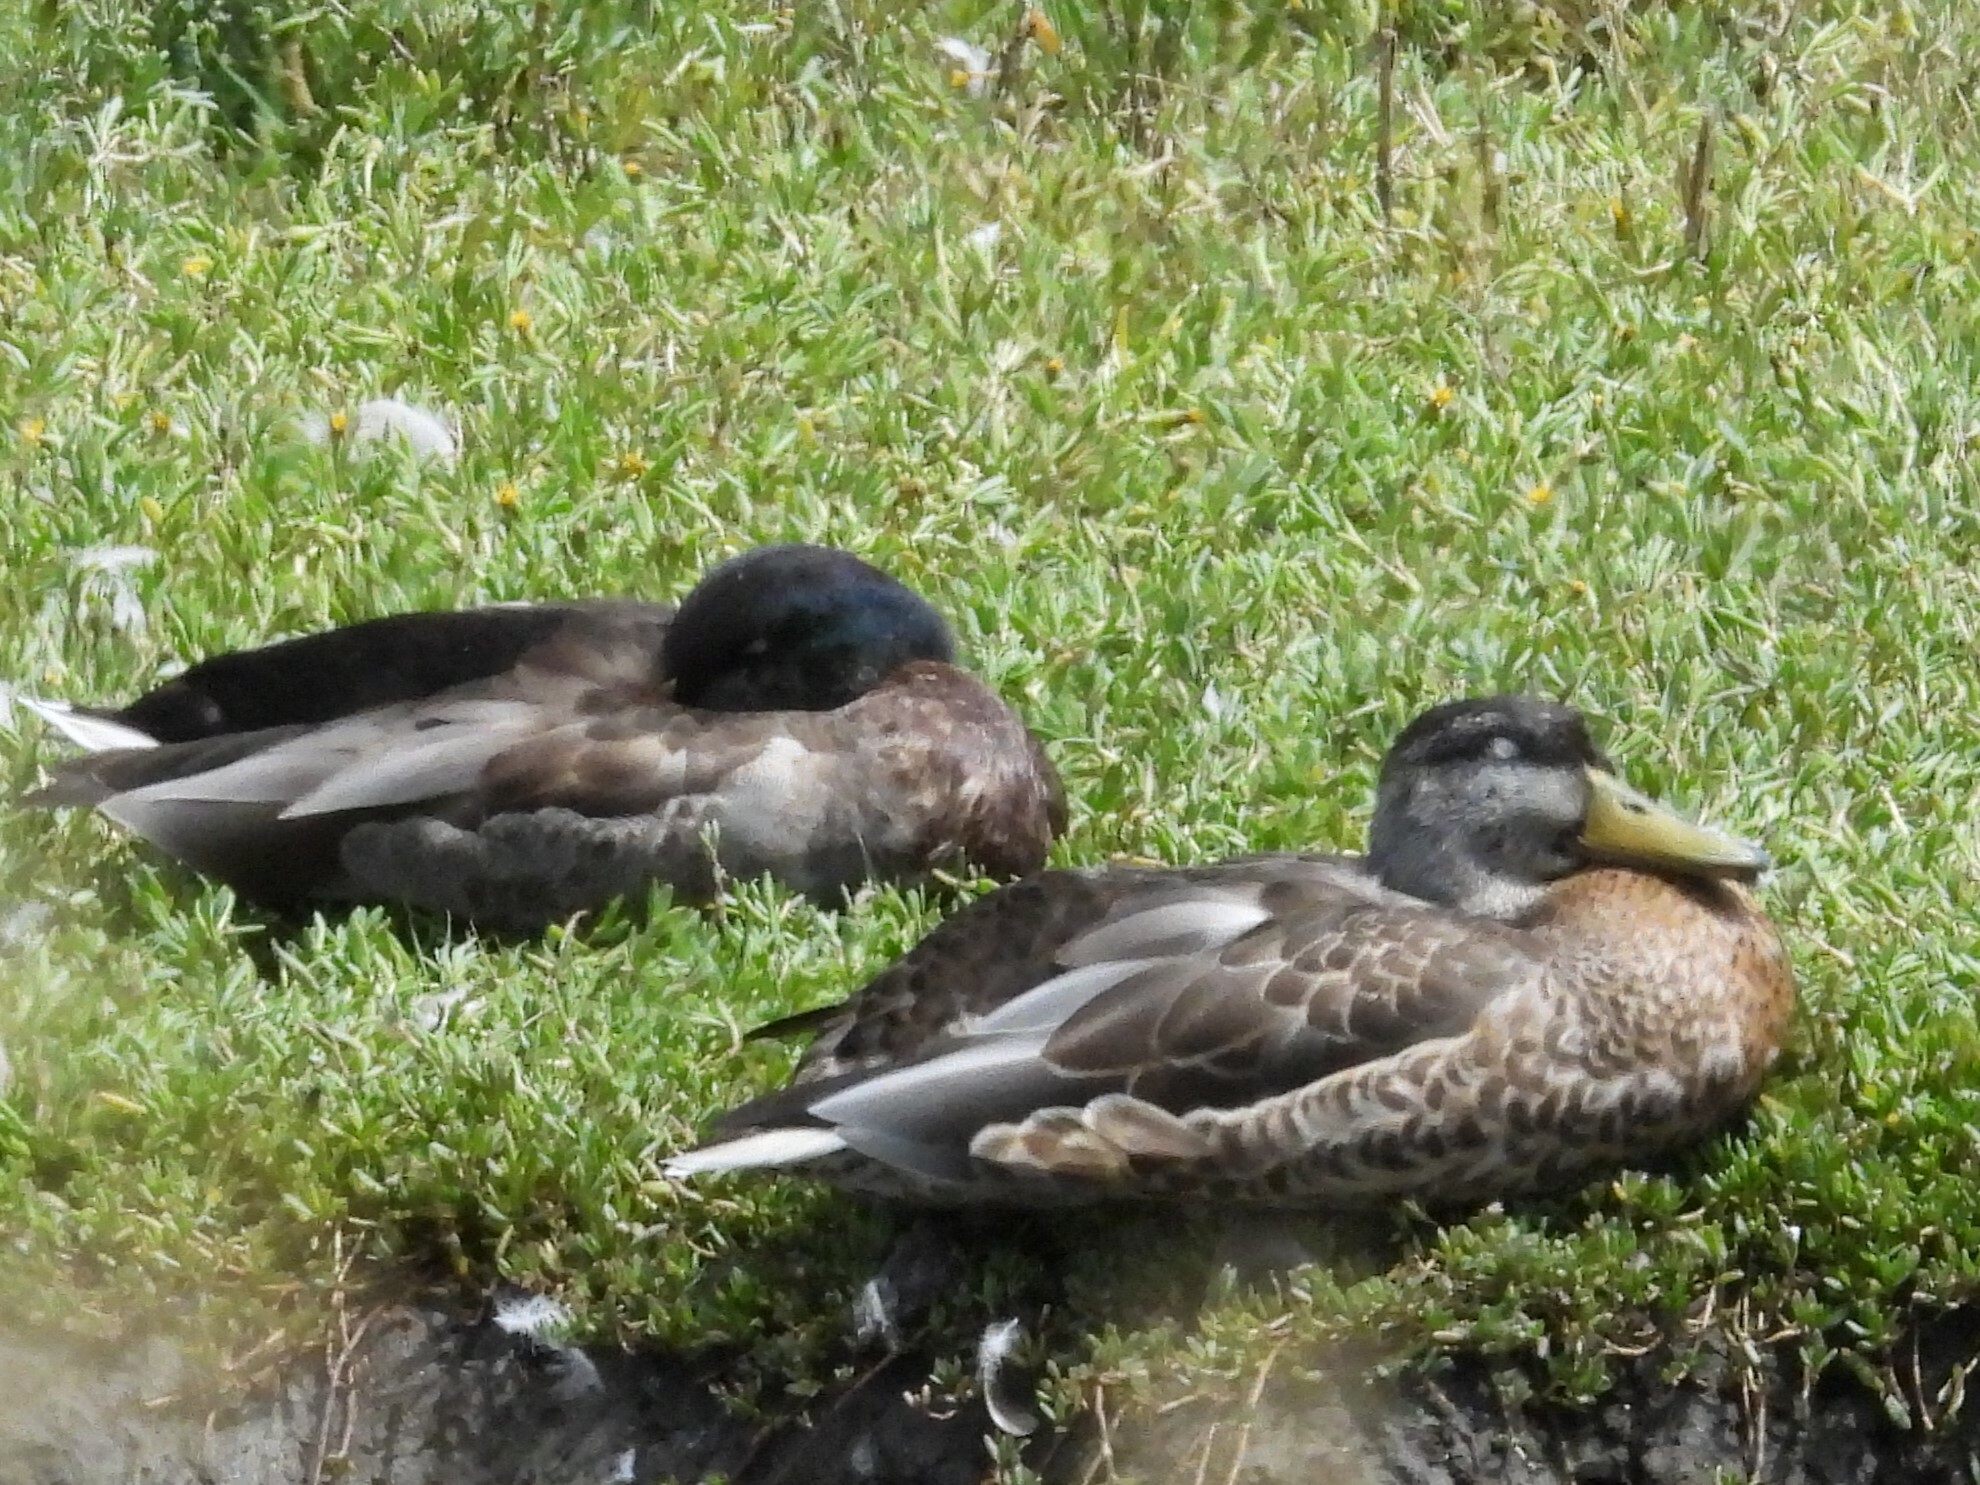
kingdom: Animalia
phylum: Chordata
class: Aves
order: Anseriformes
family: Anatidae
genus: Anas
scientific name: Anas platyrhynchos
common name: Mallard
